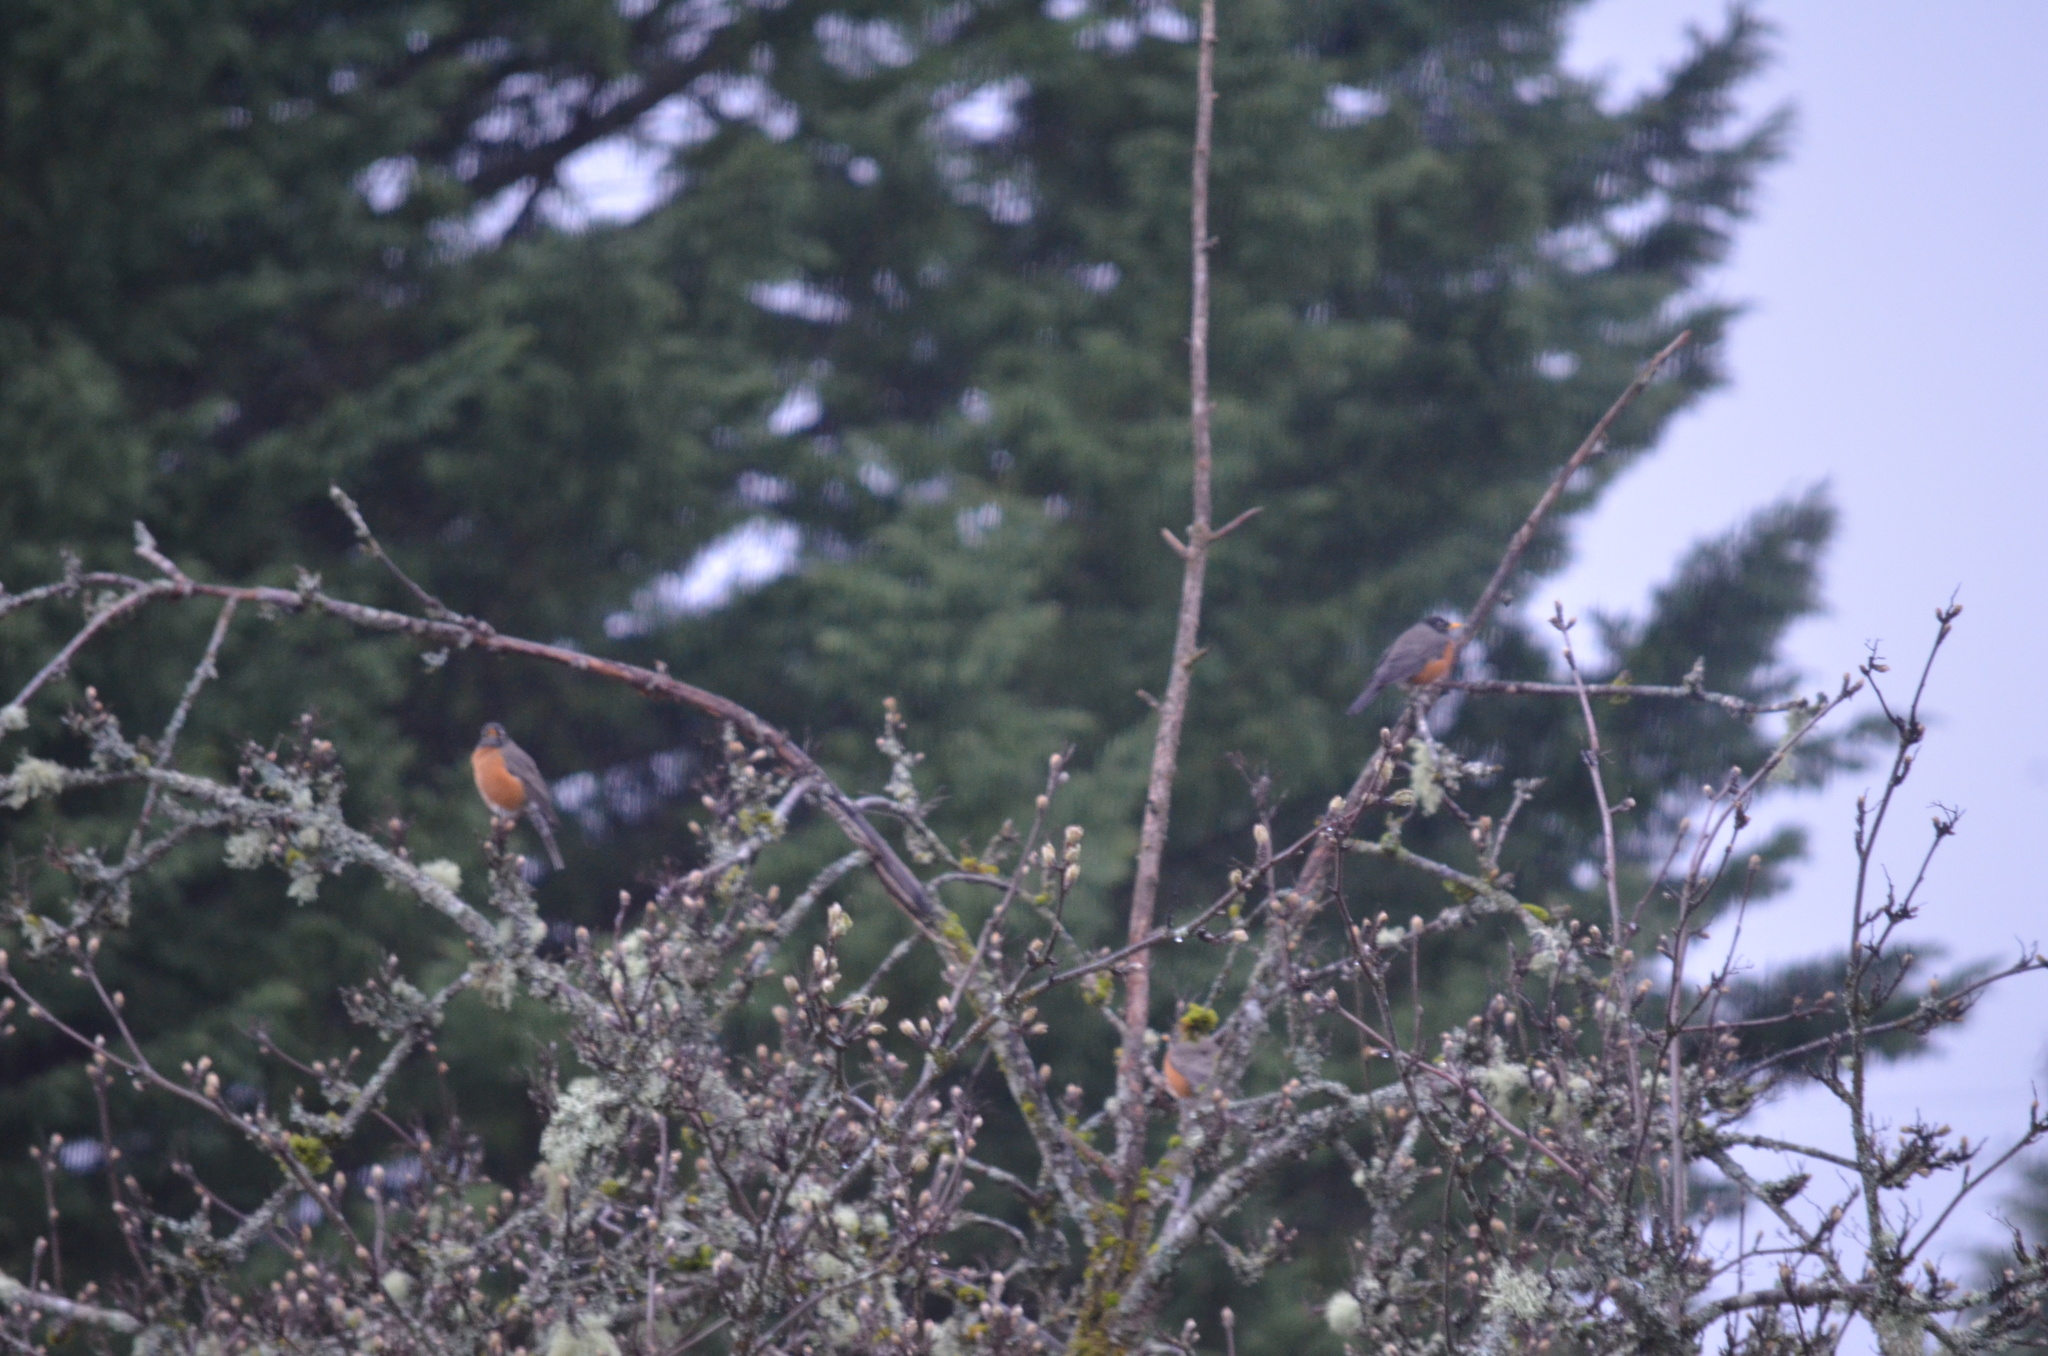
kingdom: Animalia
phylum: Chordata
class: Aves
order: Passeriformes
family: Turdidae
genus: Turdus
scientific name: Turdus migratorius
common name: American robin
